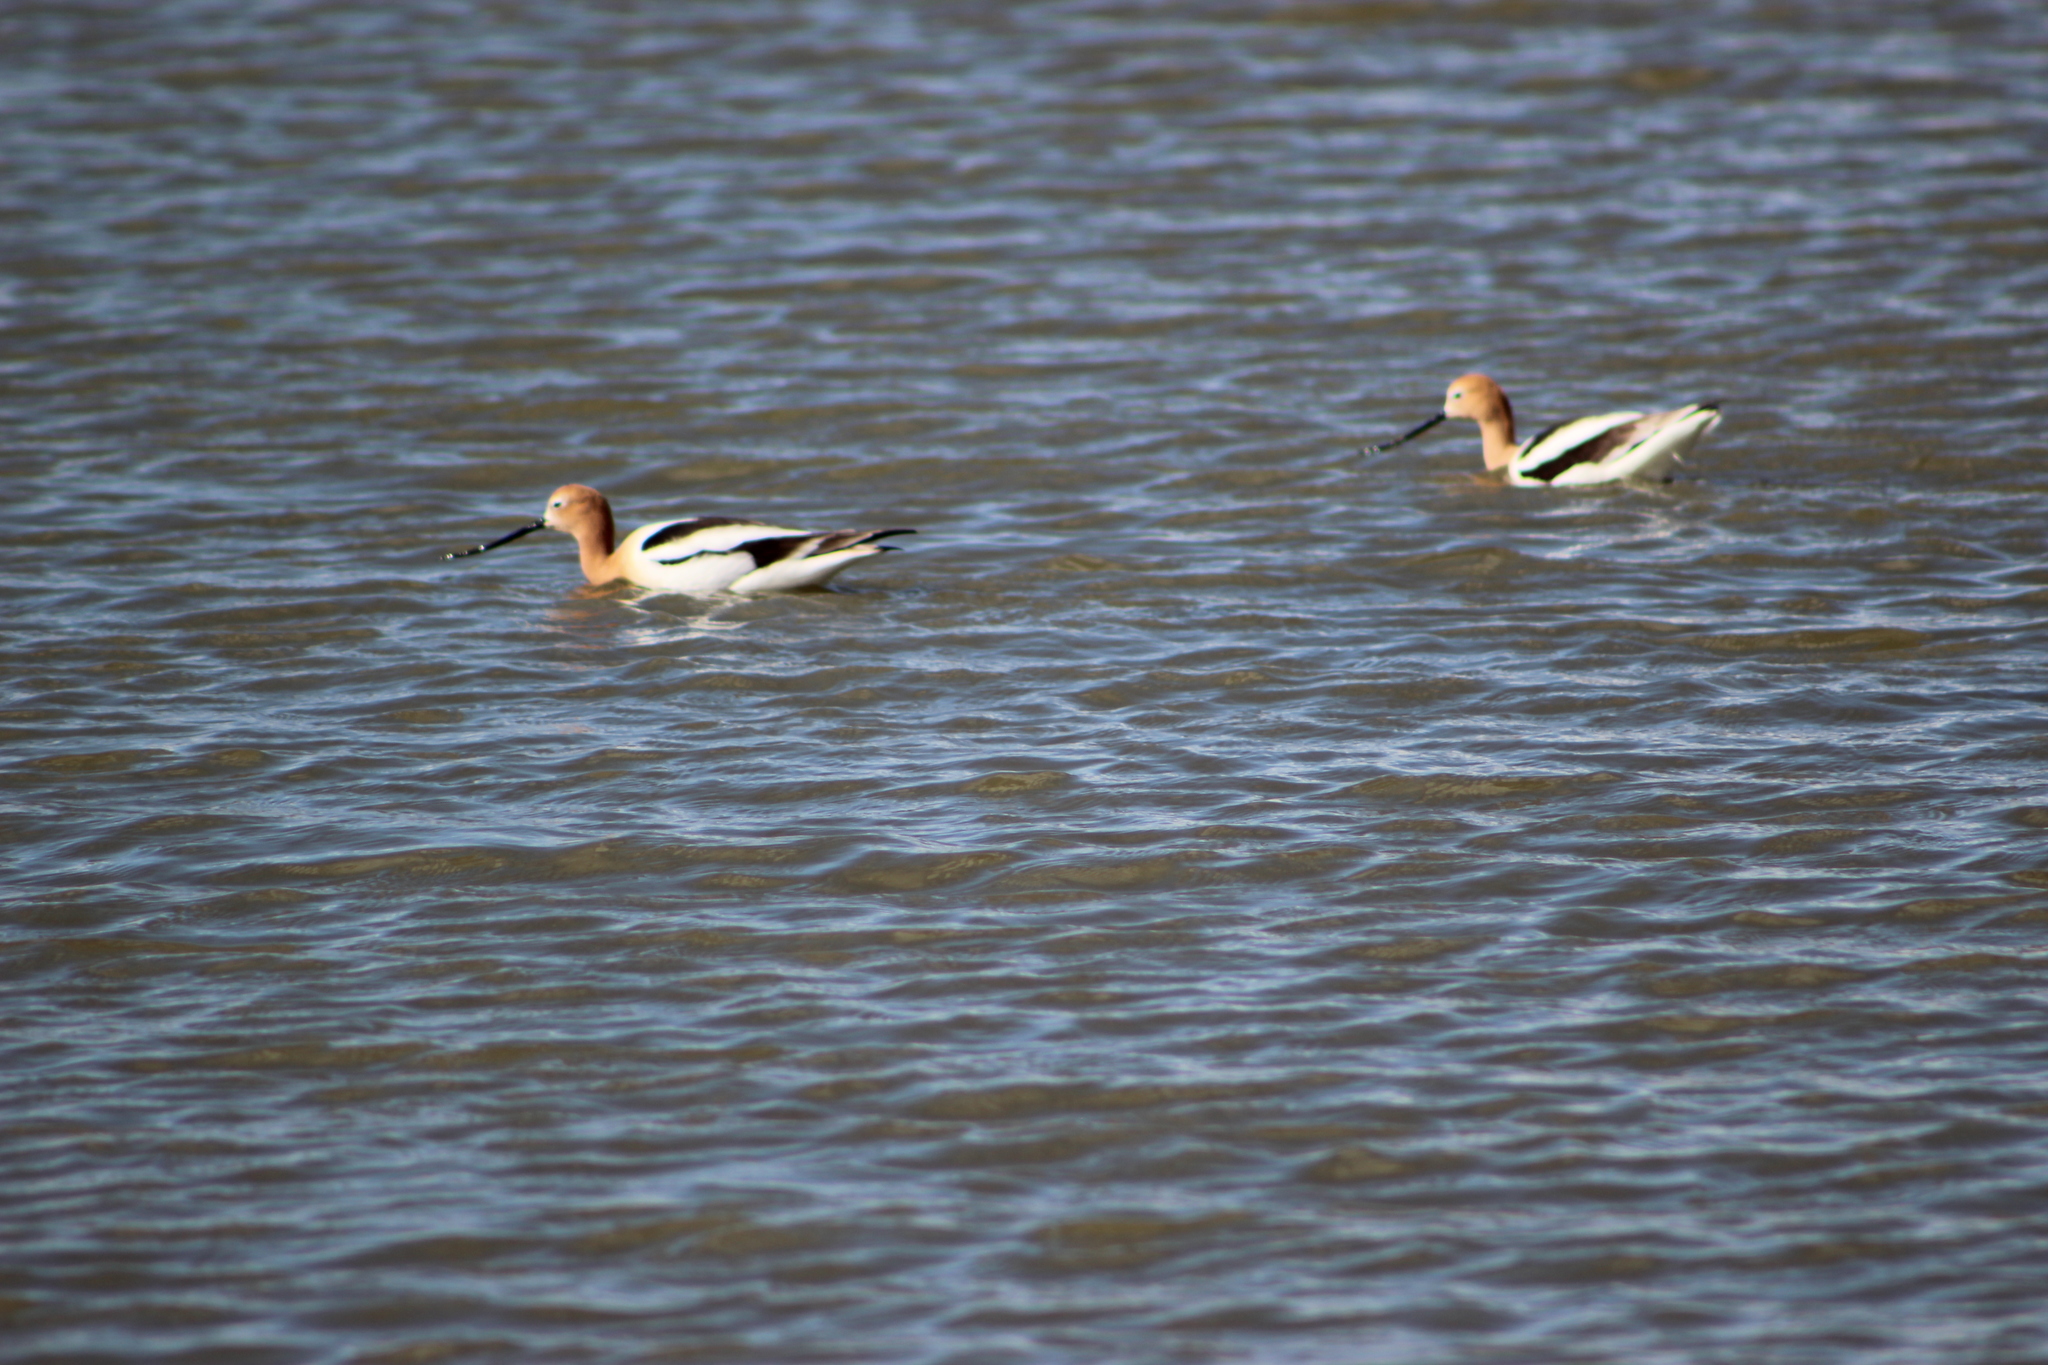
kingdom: Animalia
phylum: Chordata
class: Aves
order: Charadriiformes
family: Recurvirostridae
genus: Recurvirostra
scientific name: Recurvirostra americana
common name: American avocet
